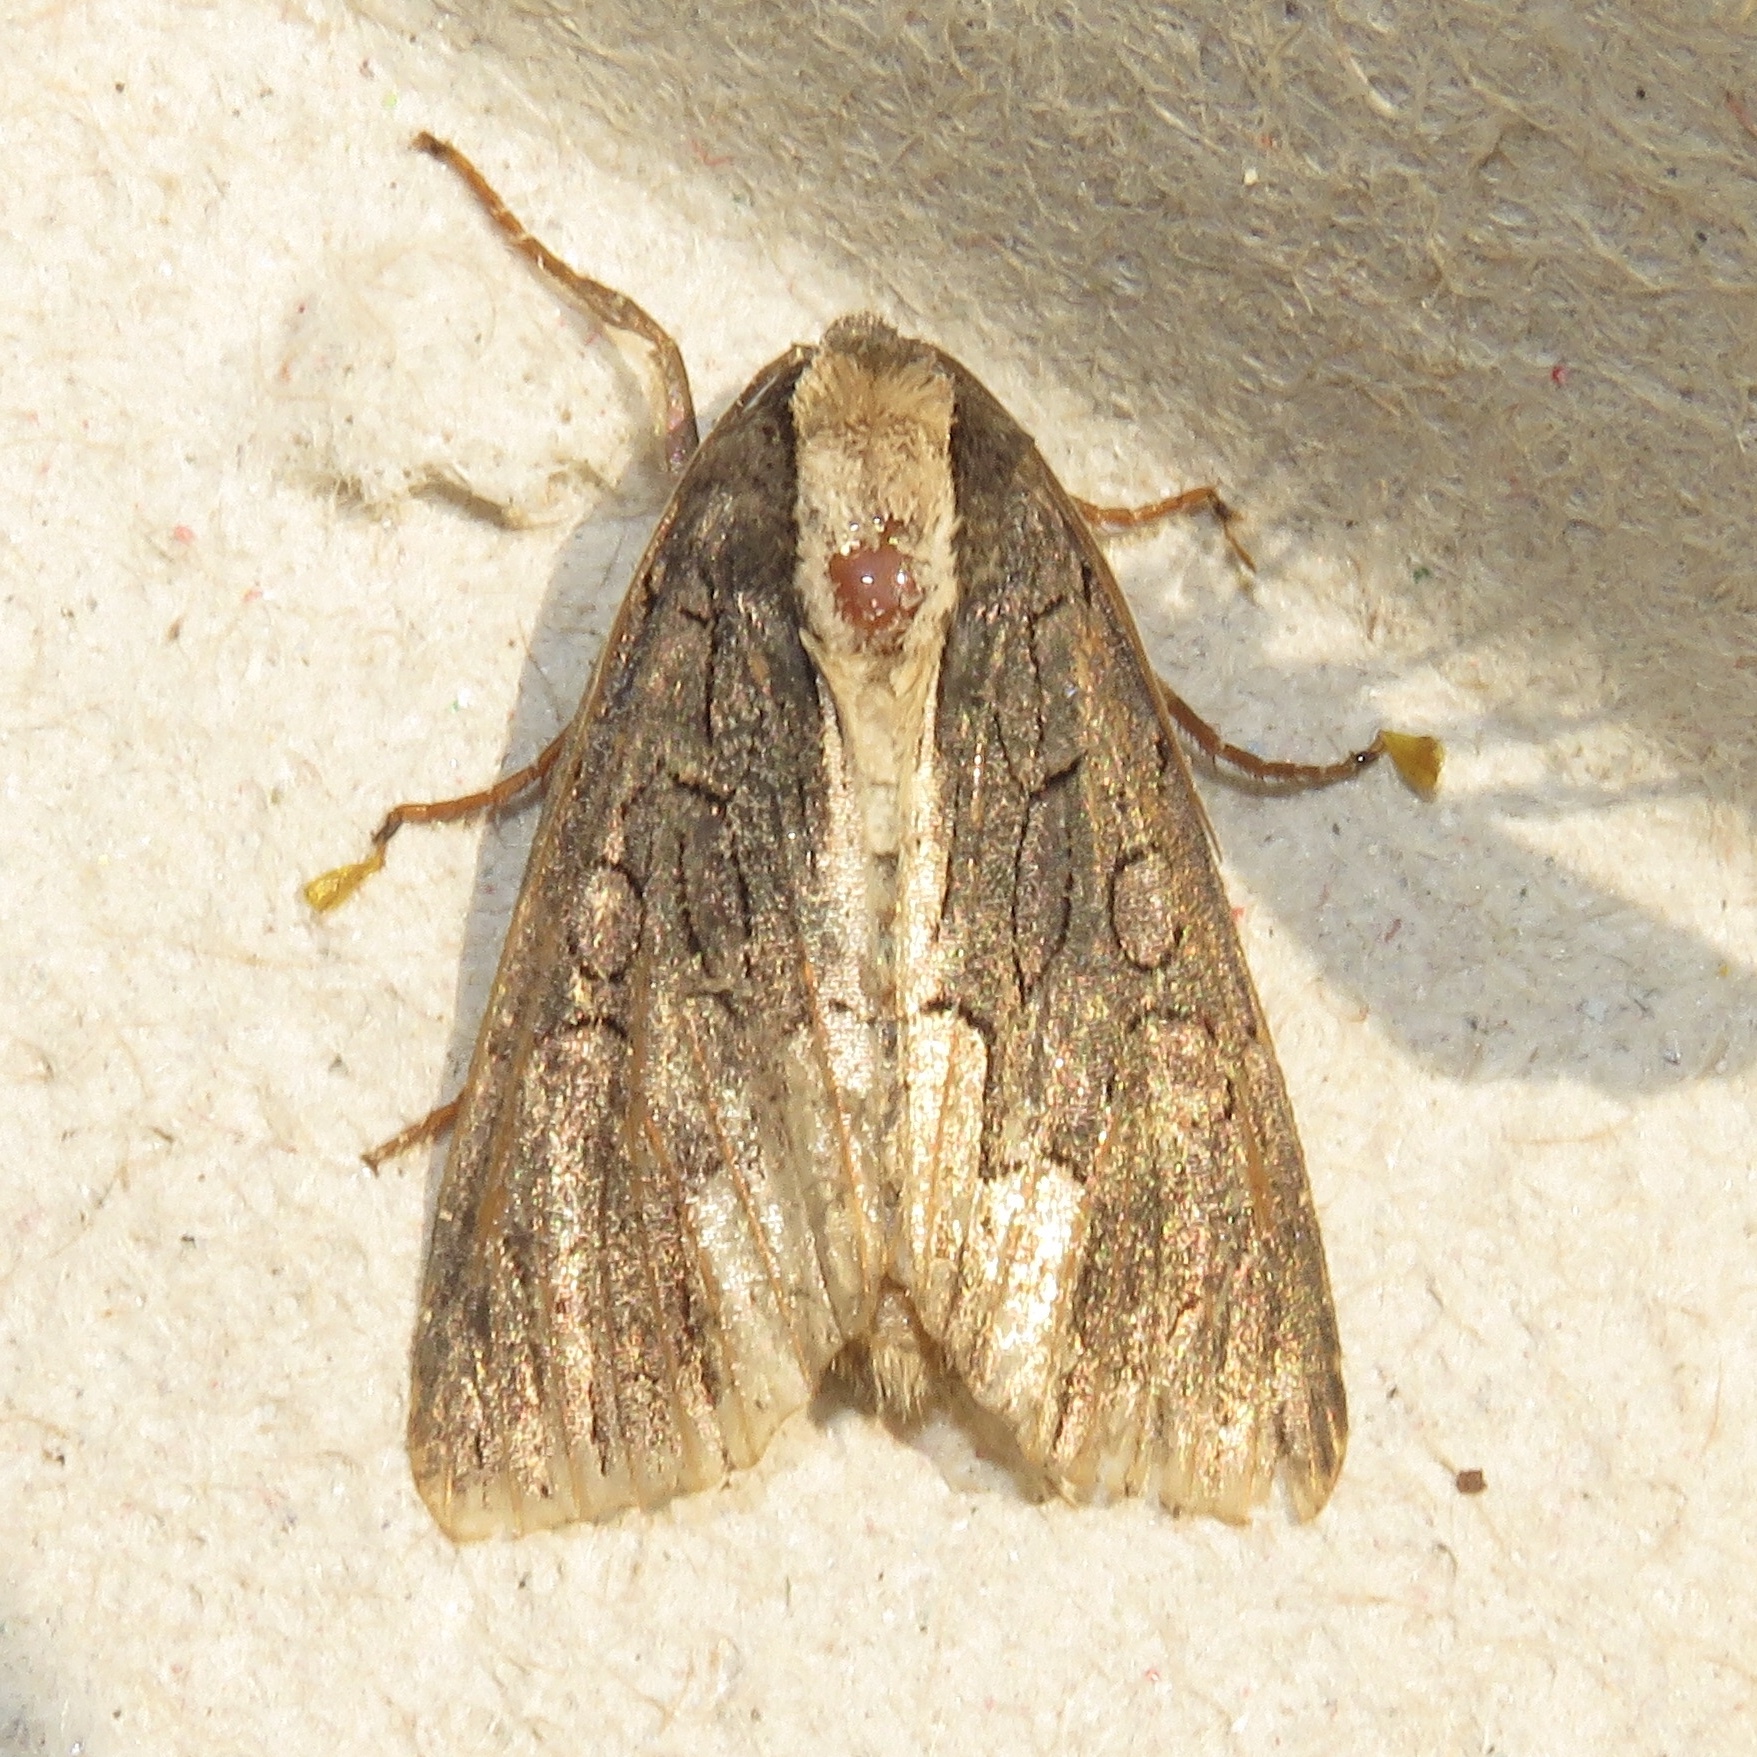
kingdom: Animalia
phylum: Arthropoda
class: Insecta
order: Lepidoptera
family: Noctuidae
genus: Dypterygia
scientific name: Dypterygia rozmani
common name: American bird's-wing
